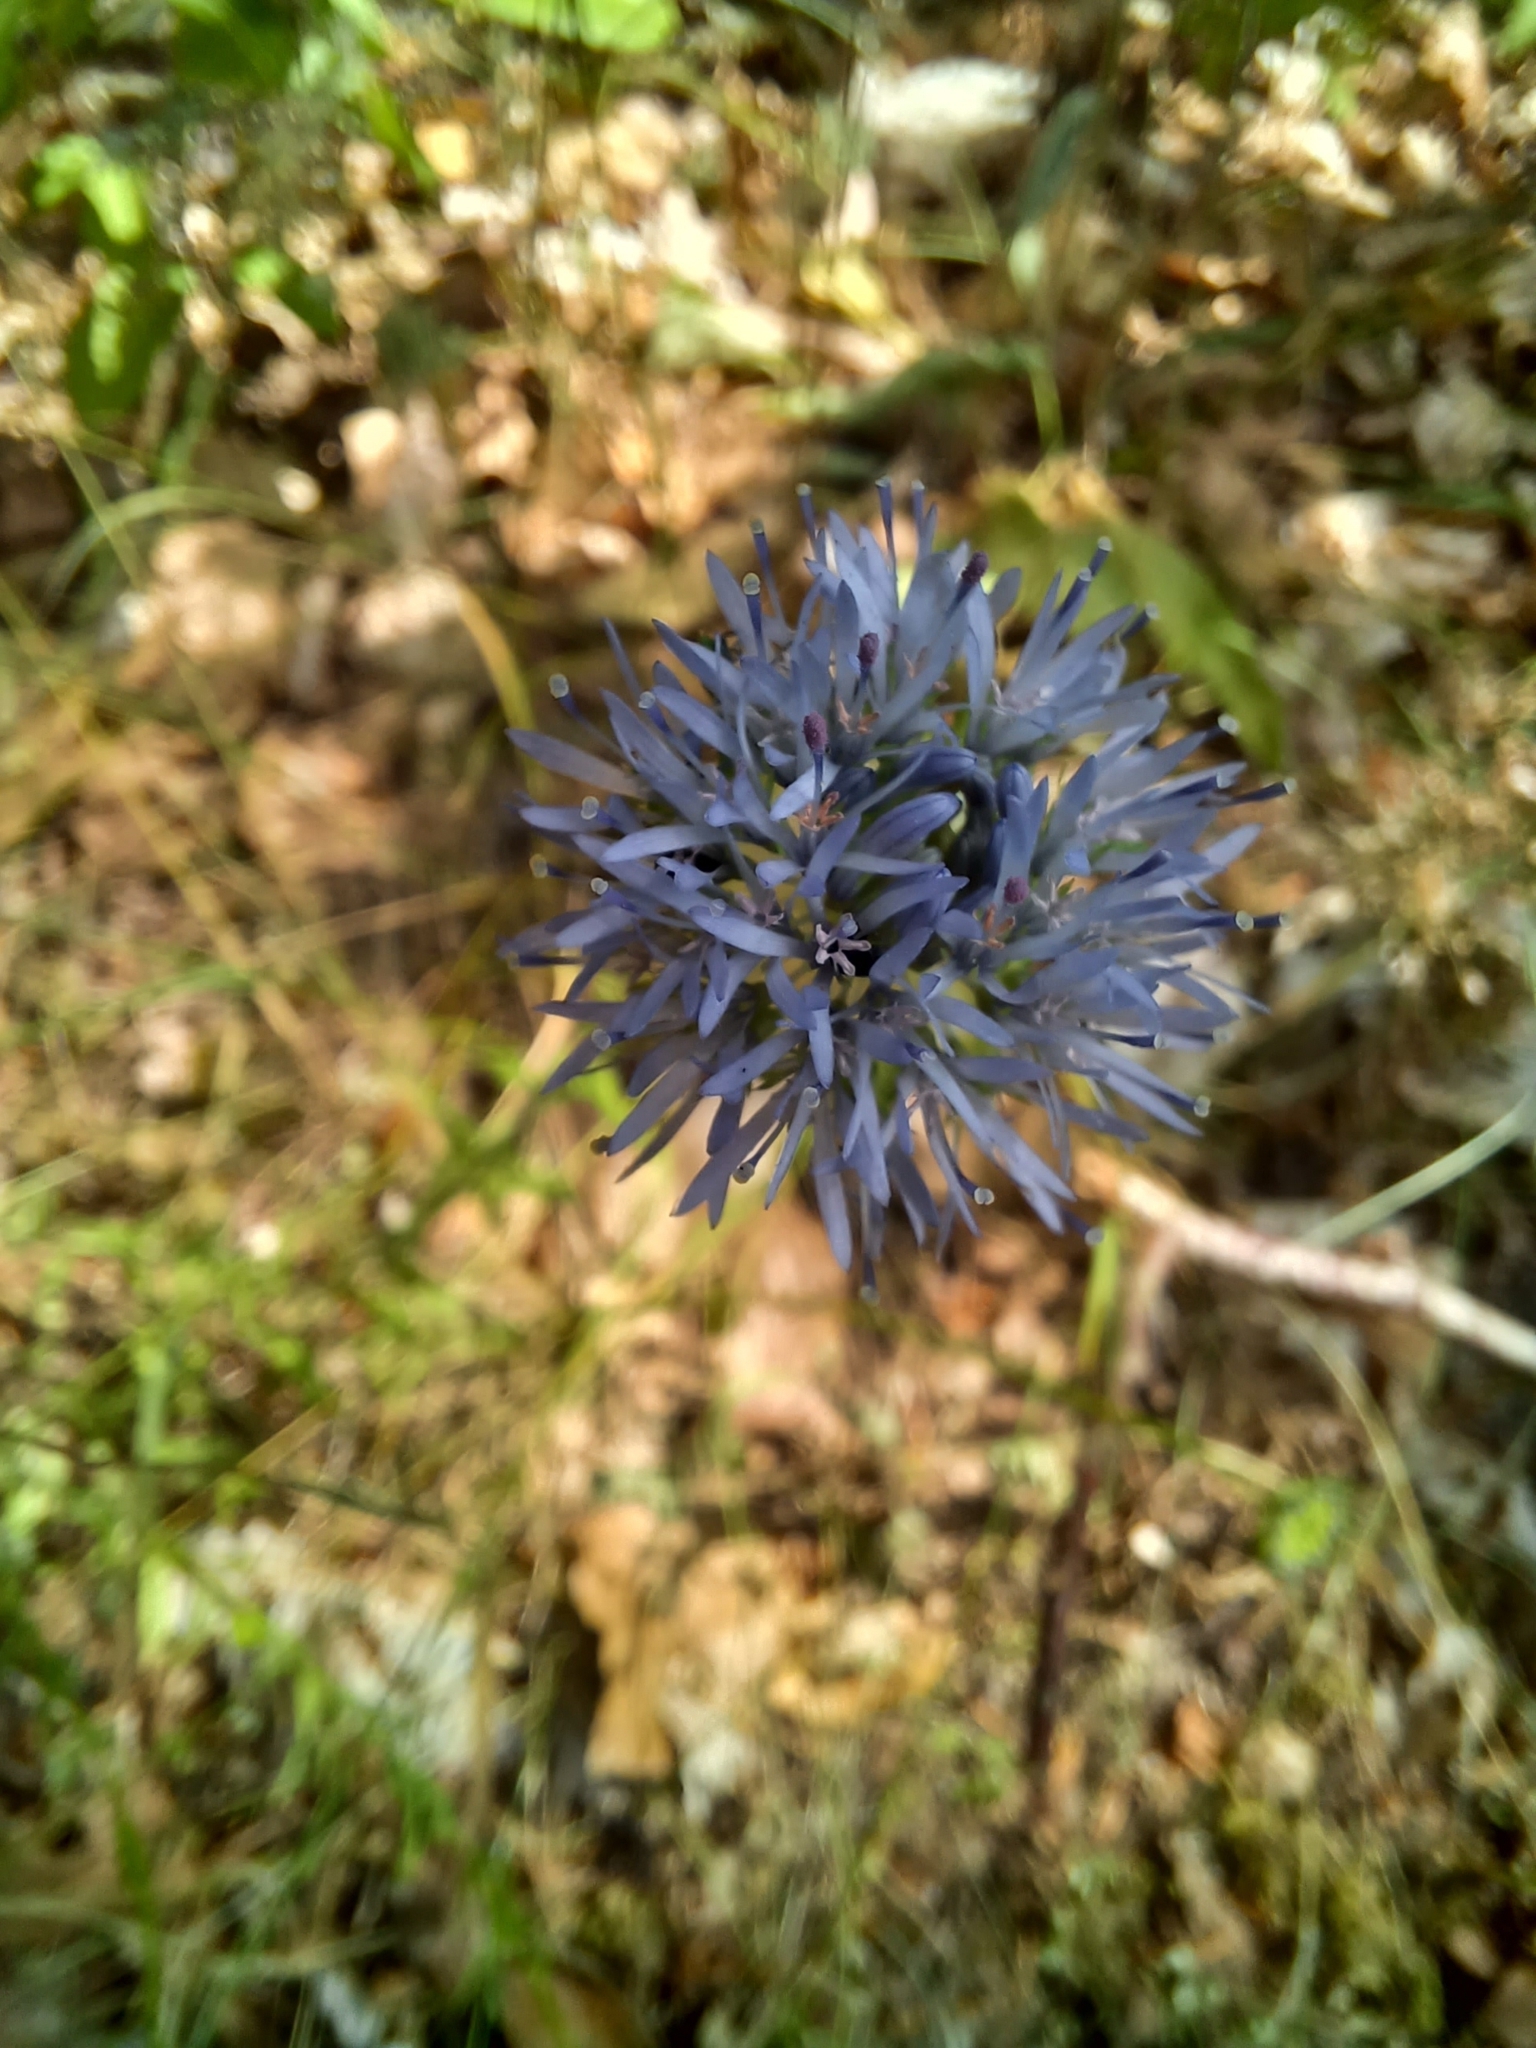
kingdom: Plantae
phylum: Tracheophyta
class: Magnoliopsida
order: Asterales
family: Campanulaceae
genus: Jasione
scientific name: Jasione montana
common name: Sheep's-bit
